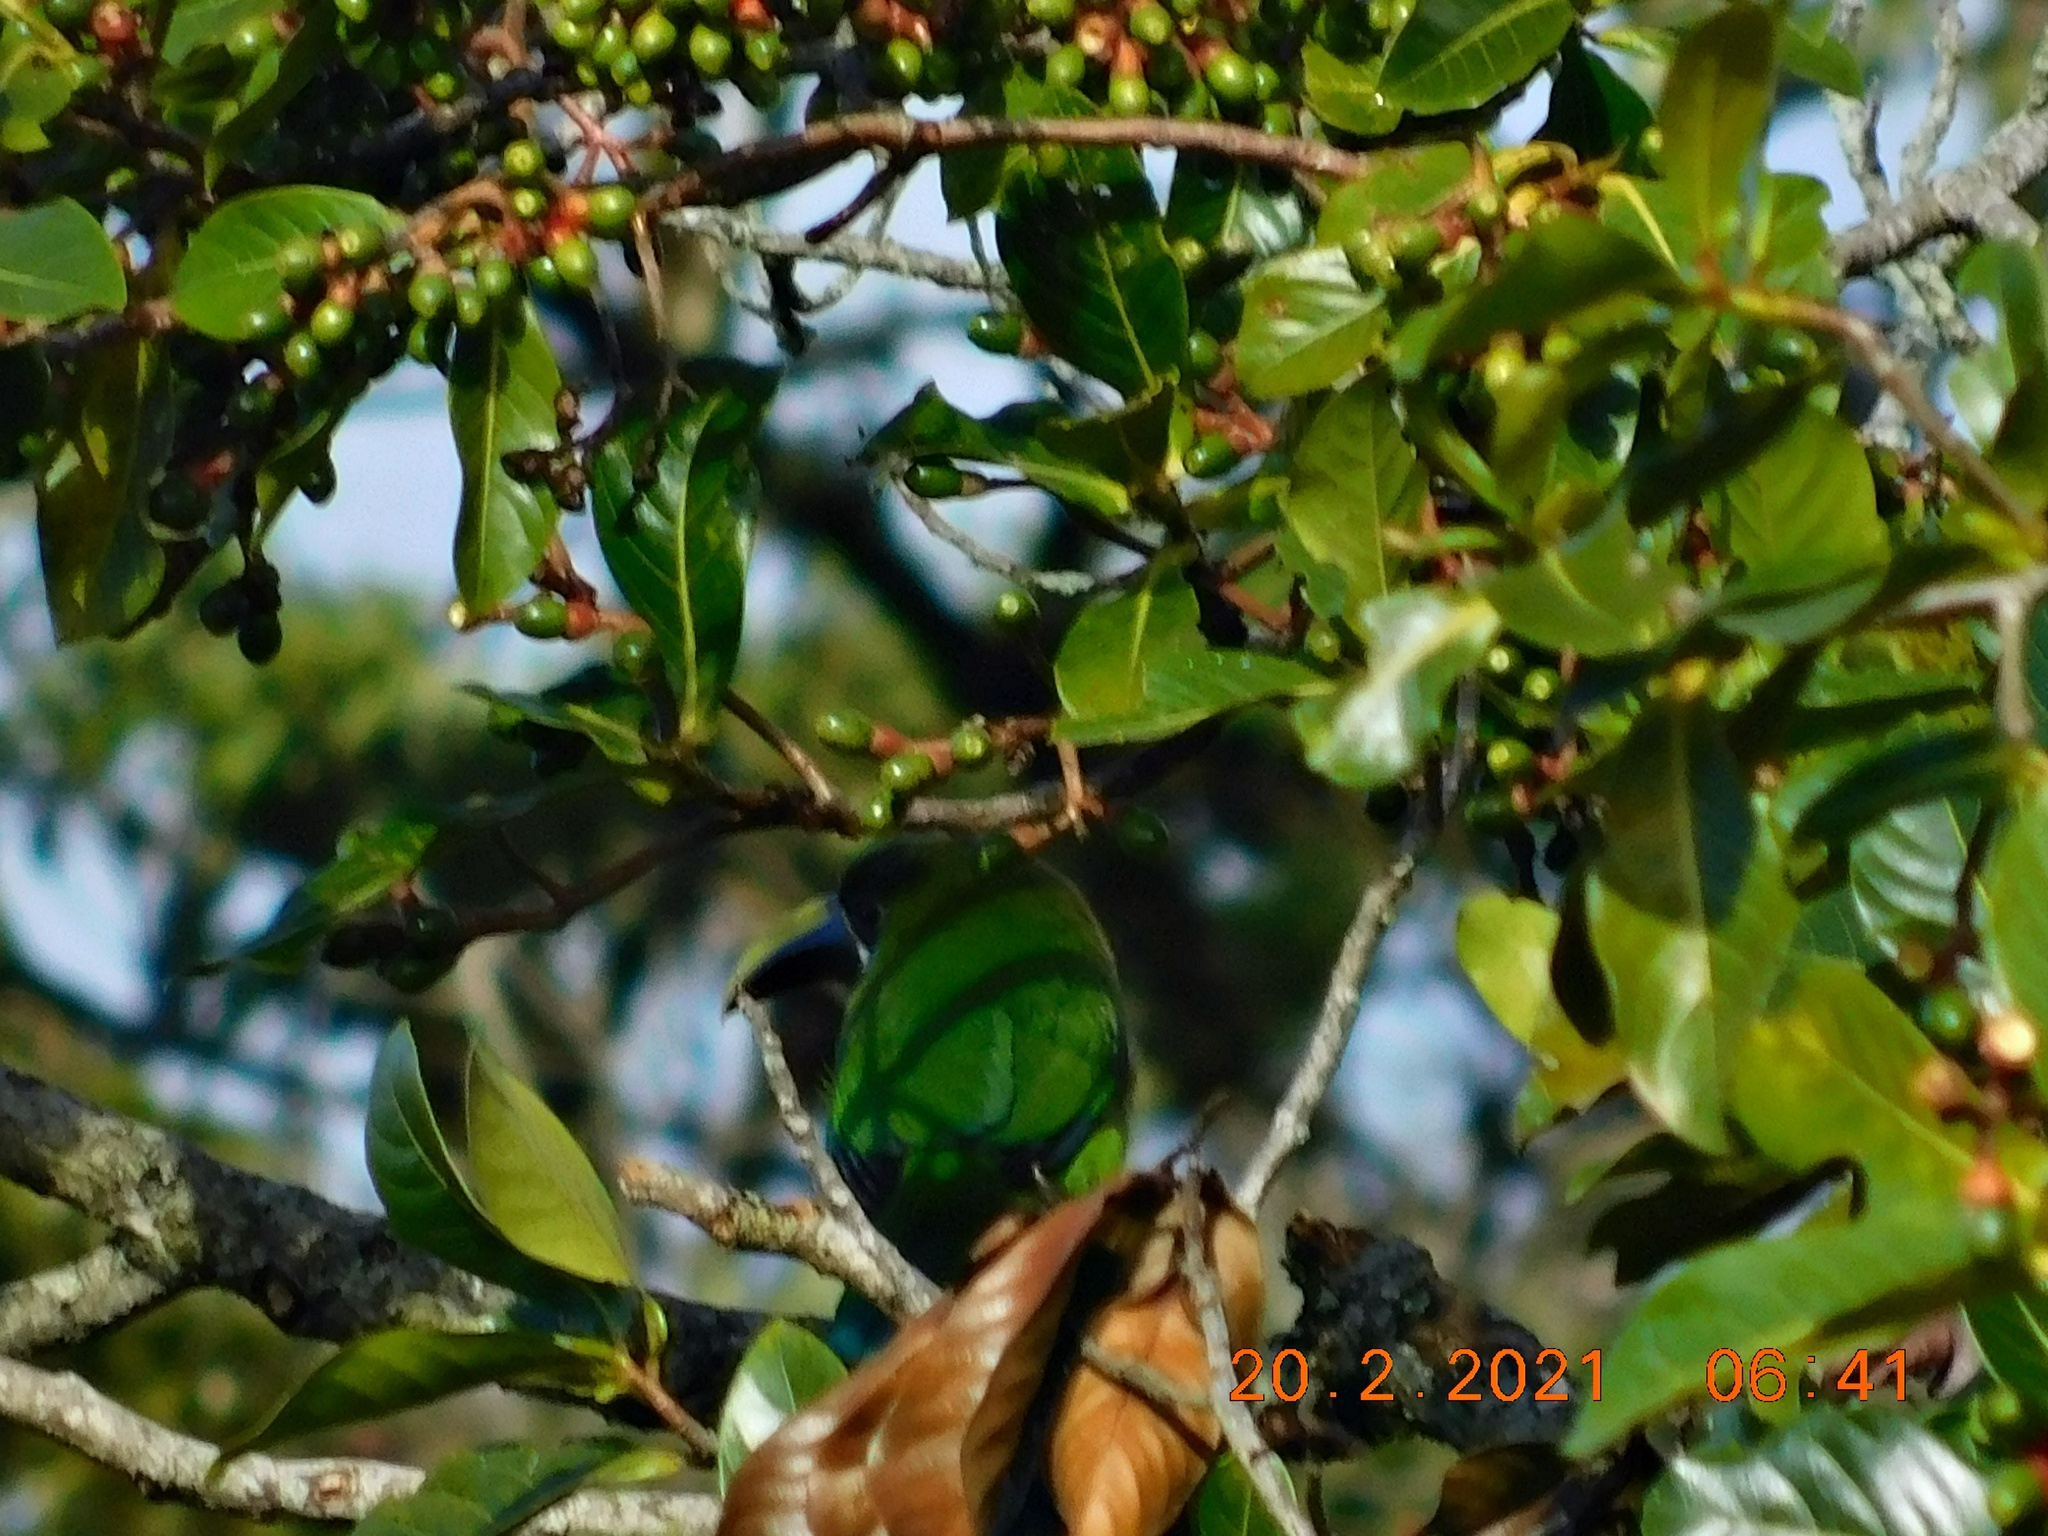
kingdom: Animalia
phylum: Chordata
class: Aves
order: Piciformes
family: Ramphastidae
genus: Aulacorhynchus
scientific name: Aulacorhynchus prasinus
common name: Emerald toucanet
